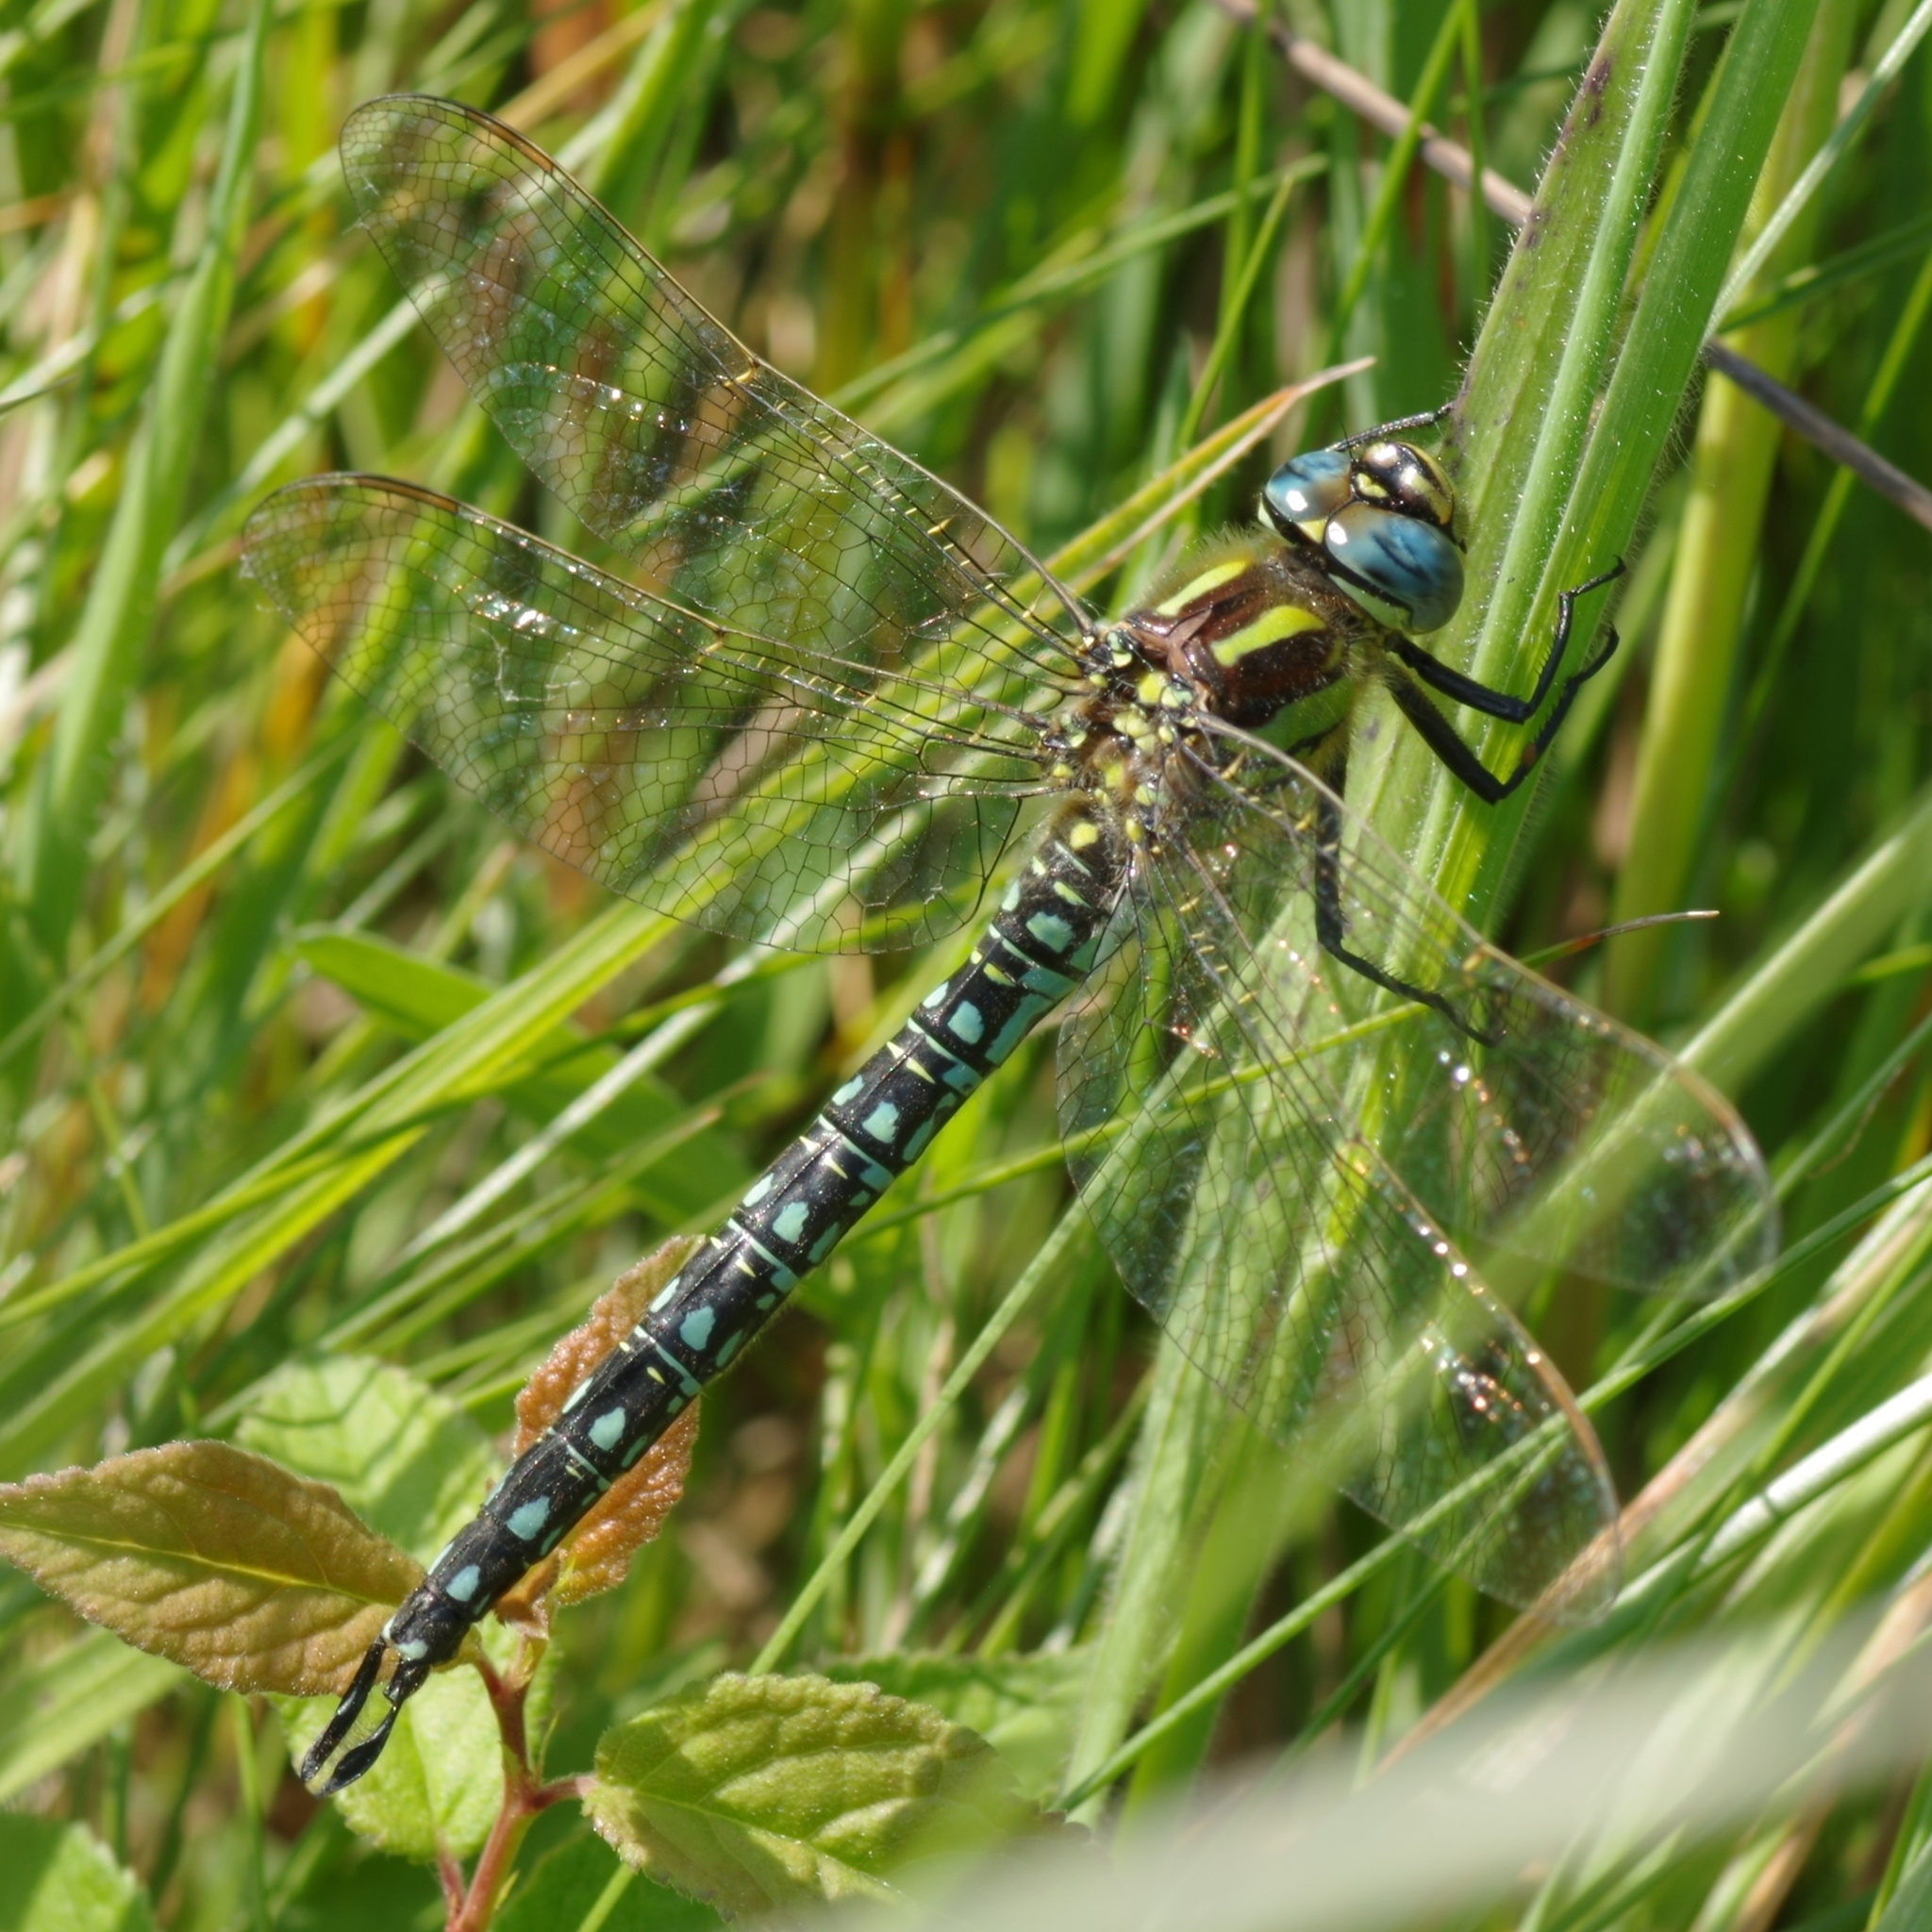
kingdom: Animalia
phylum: Arthropoda
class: Insecta
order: Odonata
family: Aeshnidae
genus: Brachytron
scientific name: Brachytron pratense
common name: Hairy hawker
